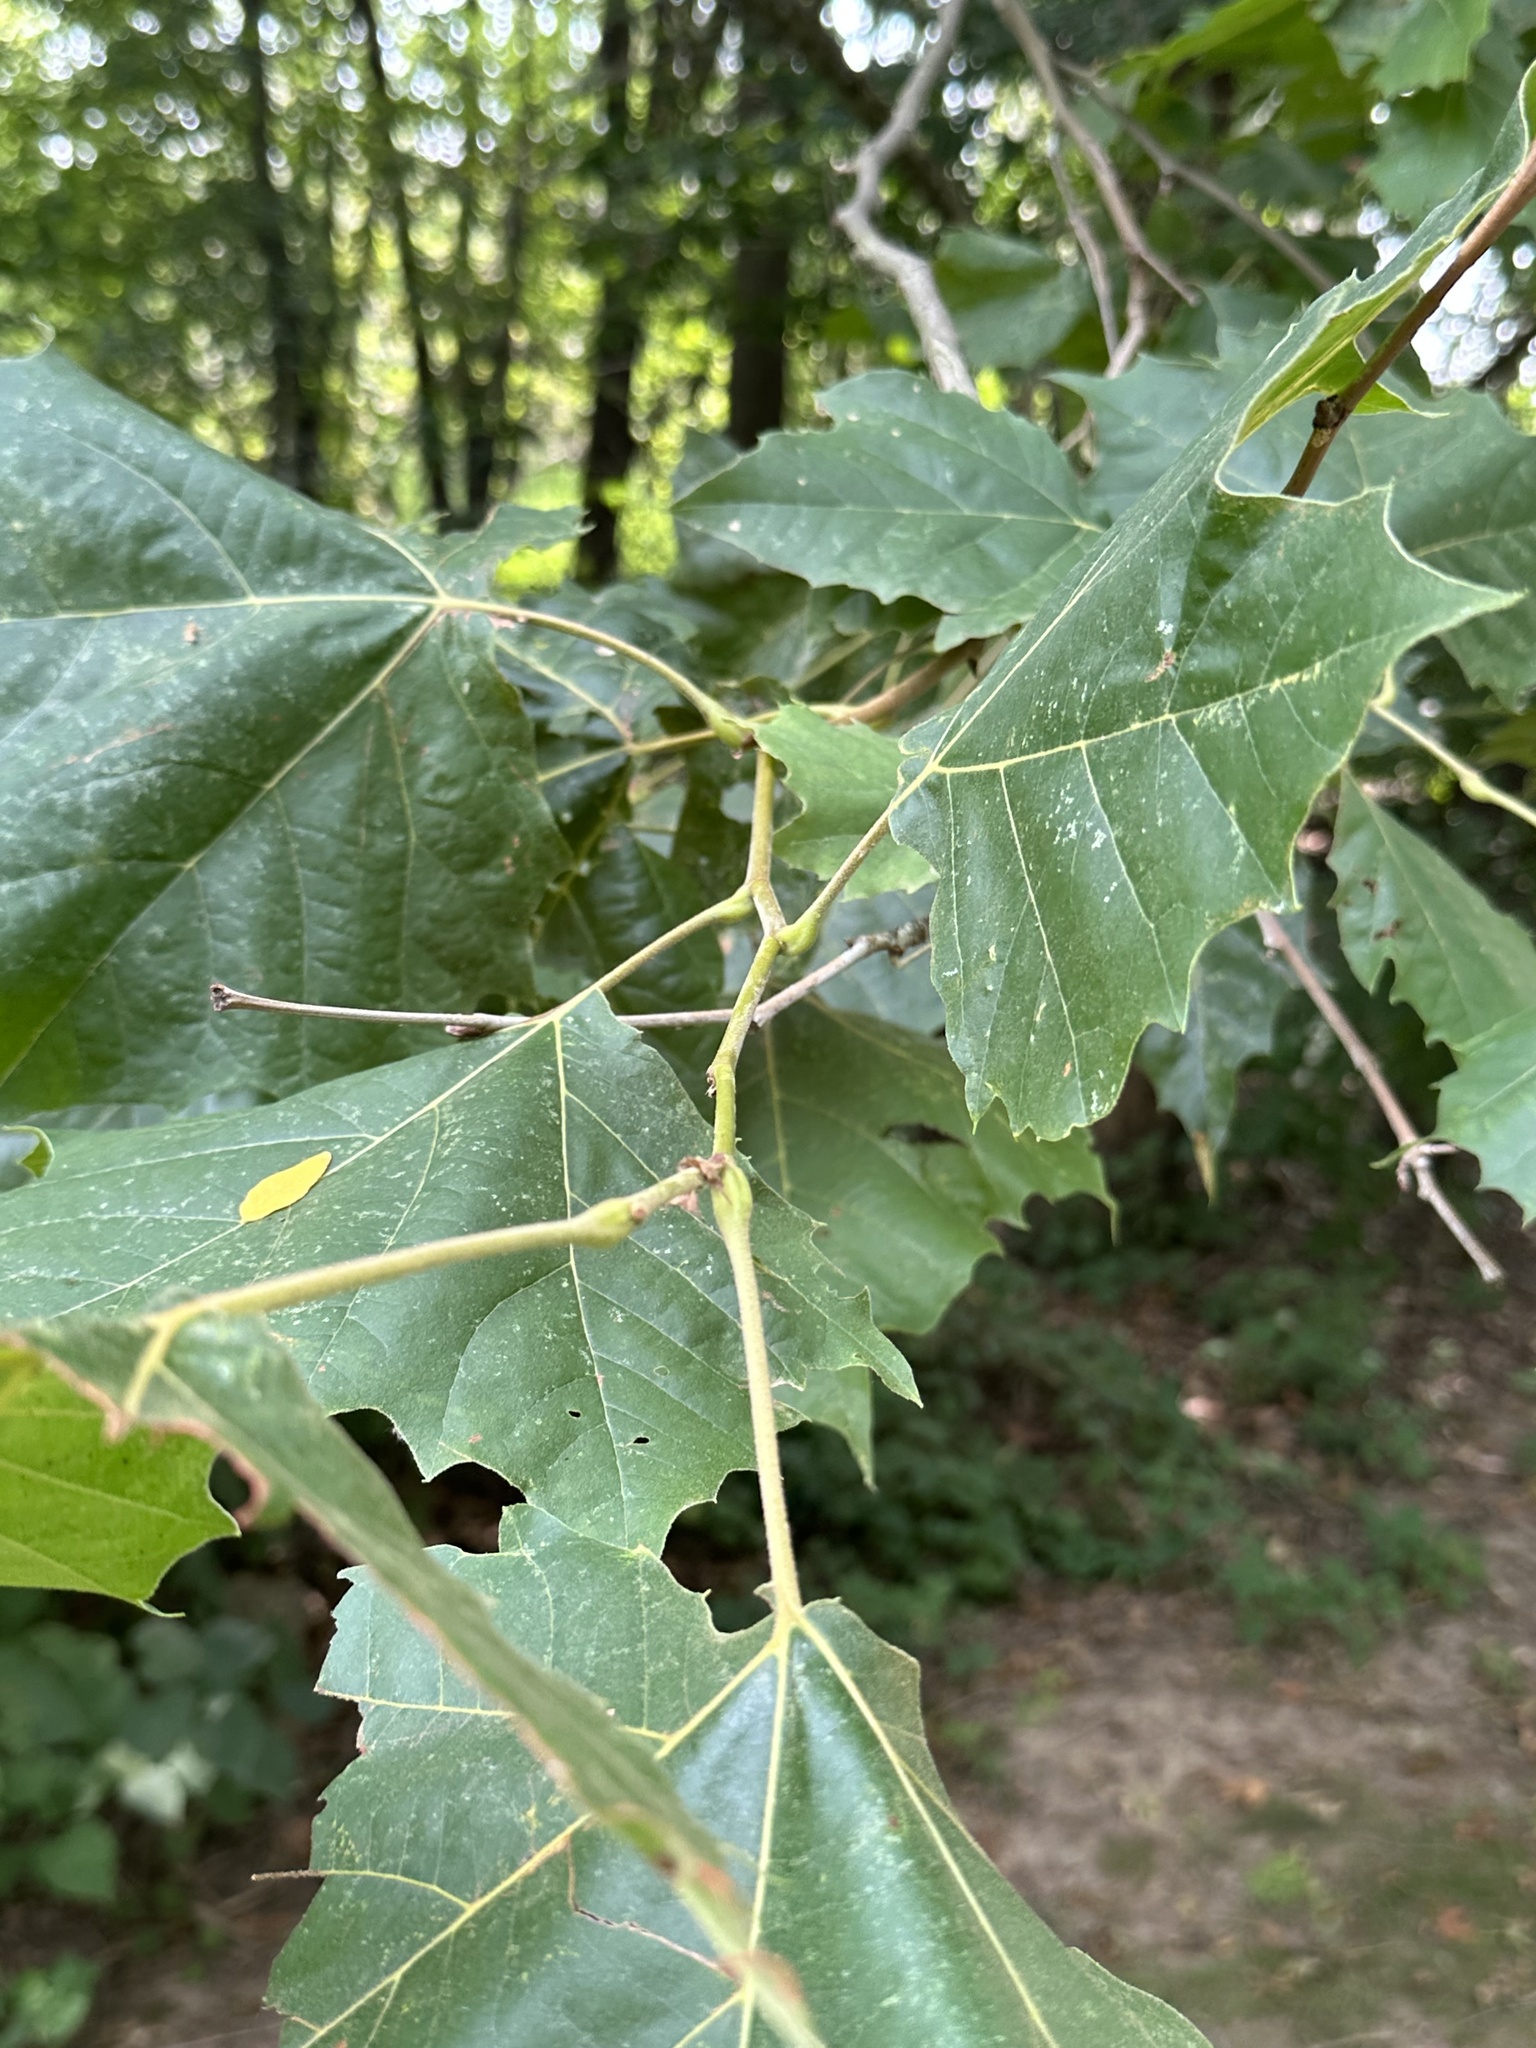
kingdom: Plantae
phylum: Tracheophyta
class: Magnoliopsida
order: Proteales
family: Platanaceae
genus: Platanus
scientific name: Platanus occidentalis
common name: American sycamore
